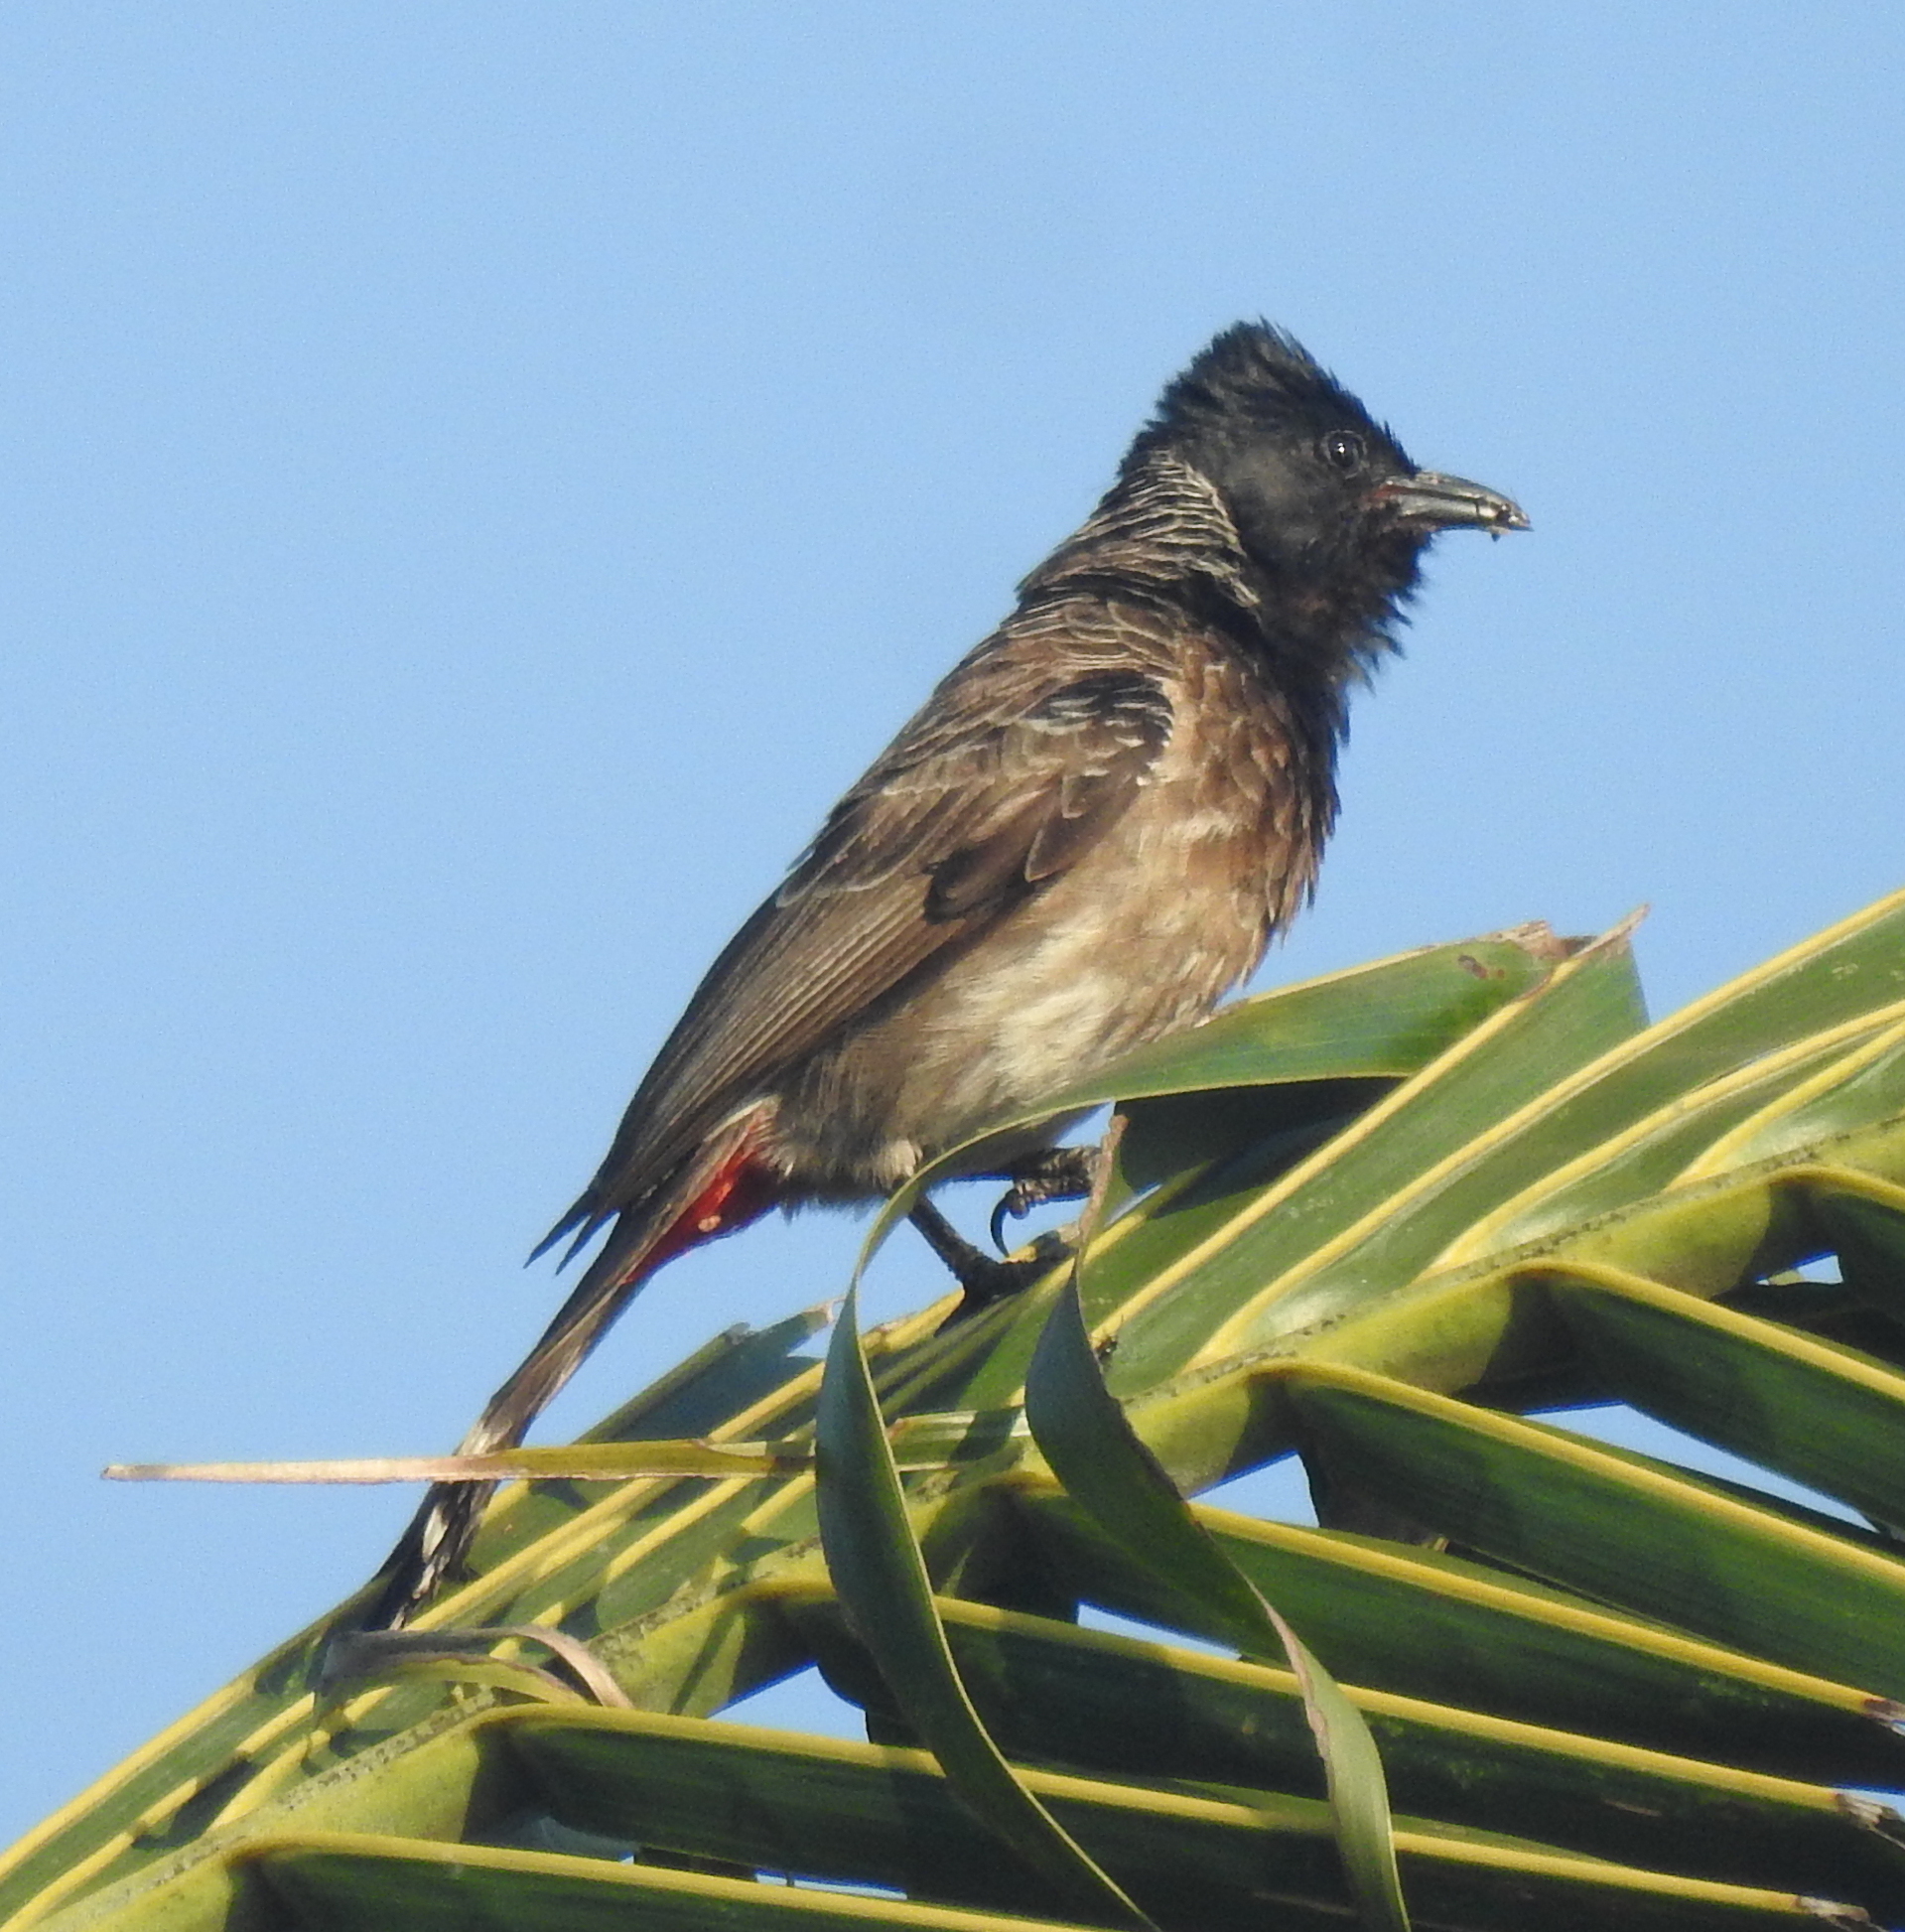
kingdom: Animalia
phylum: Chordata
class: Aves
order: Passeriformes
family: Pycnonotidae
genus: Pycnonotus
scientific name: Pycnonotus cafer
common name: Red-vented bulbul
